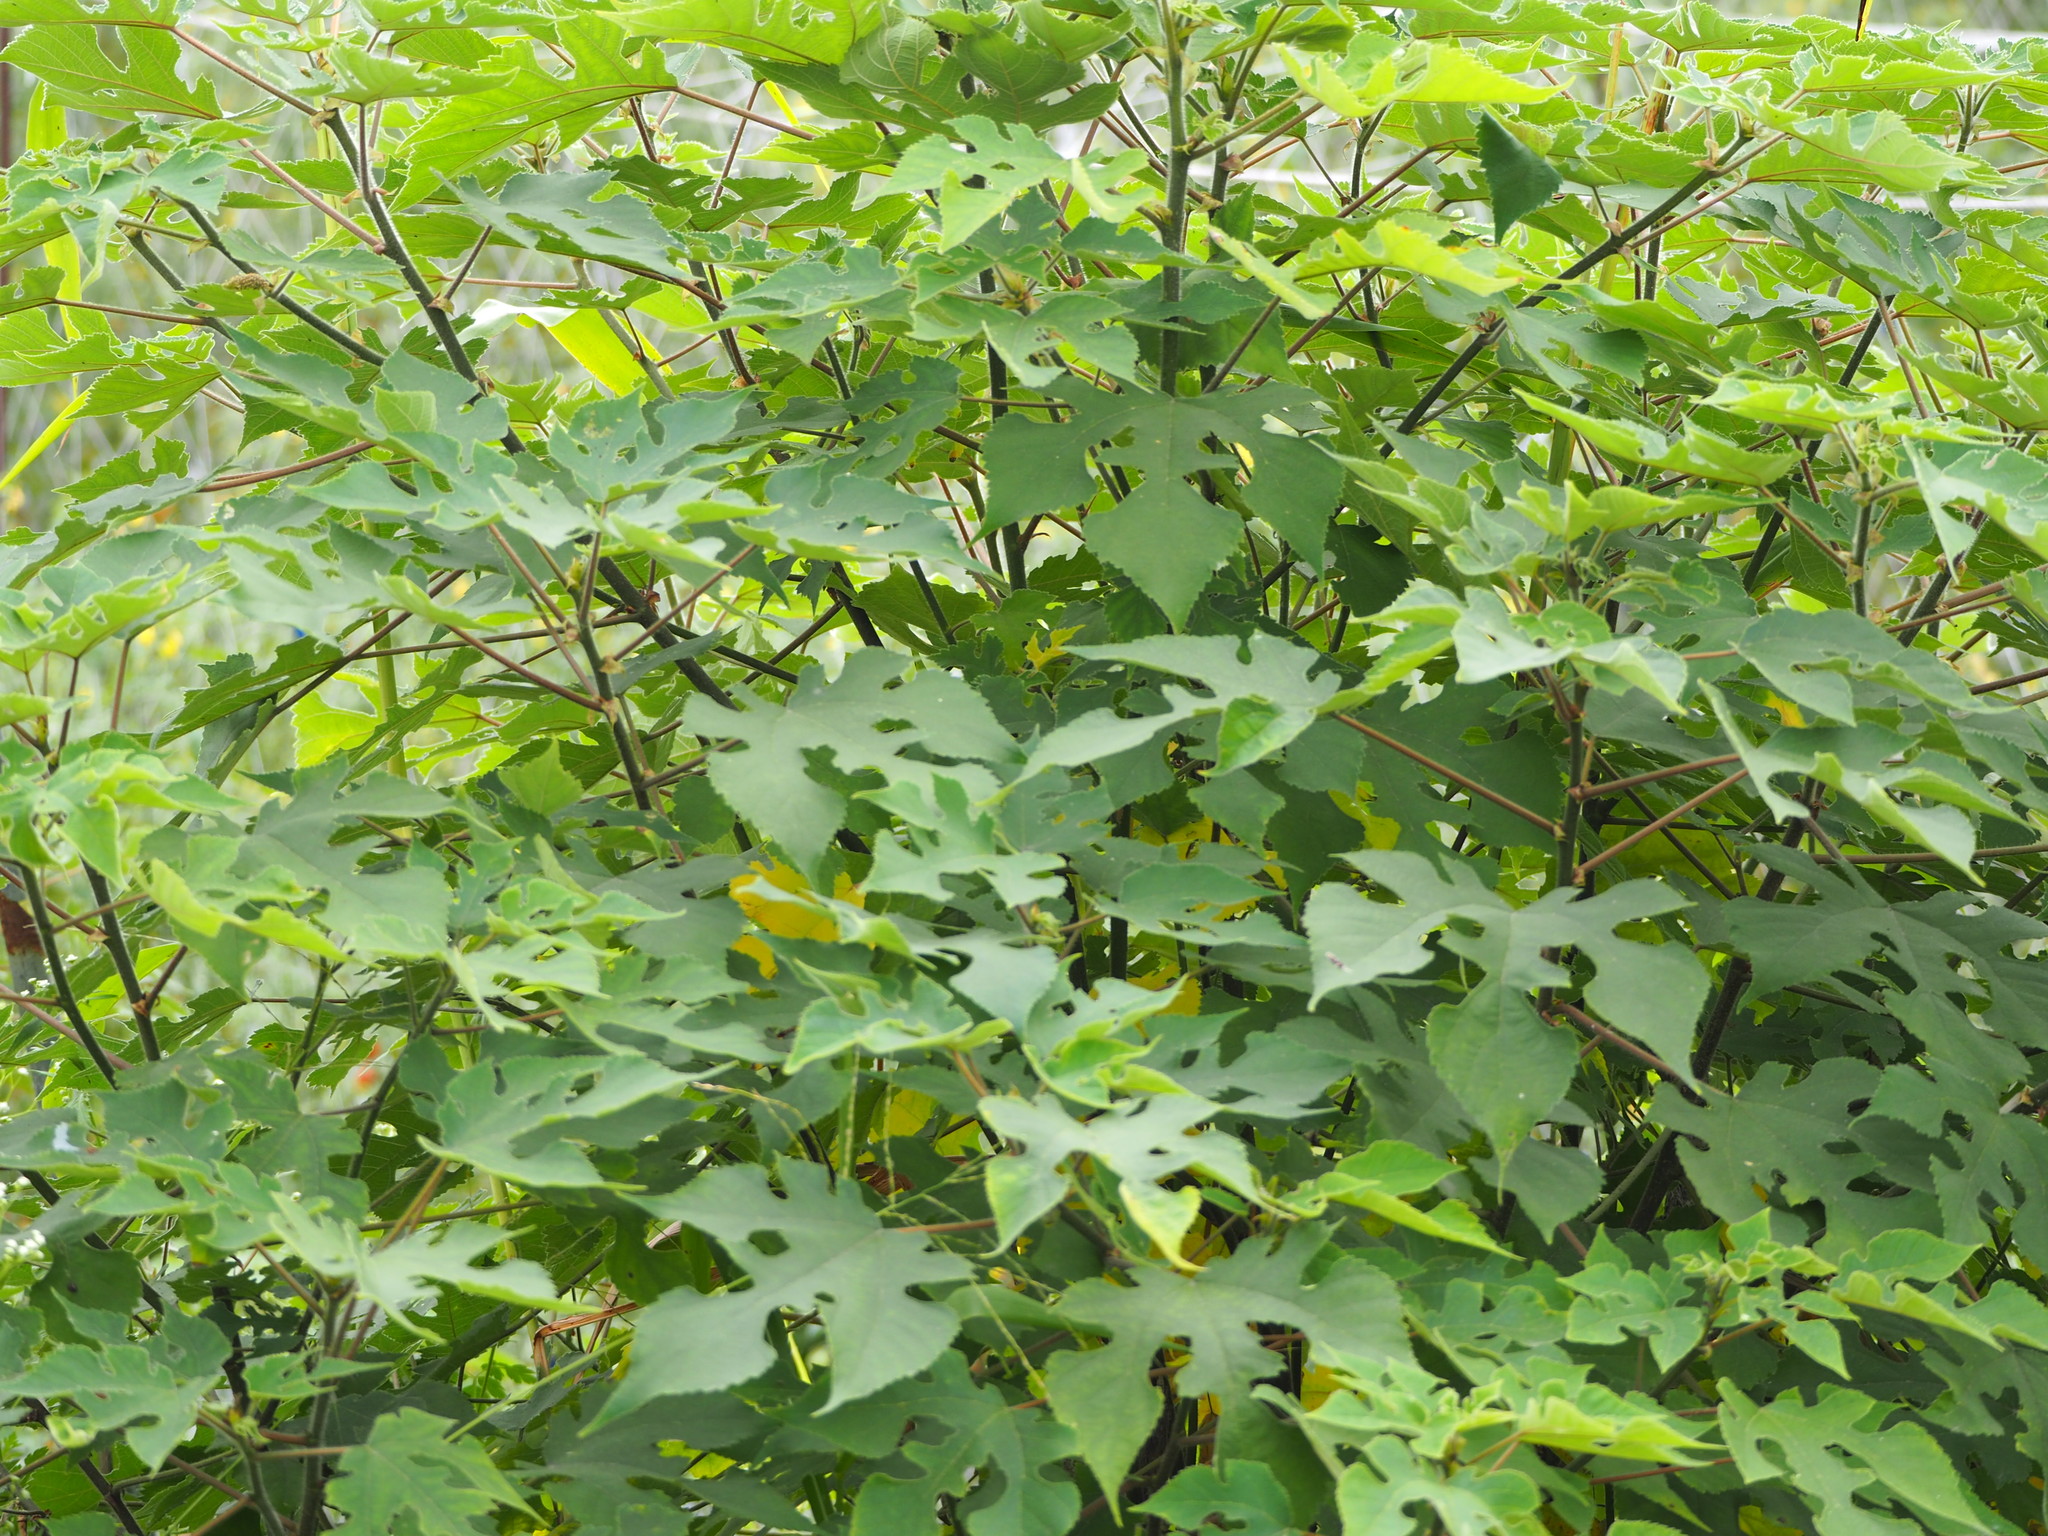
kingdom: Plantae
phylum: Tracheophyta
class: Magnoliopsida
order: Rosales
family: Moraceae
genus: Broussonetia
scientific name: Broussonetia papyrifera
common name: Paper mulberry
